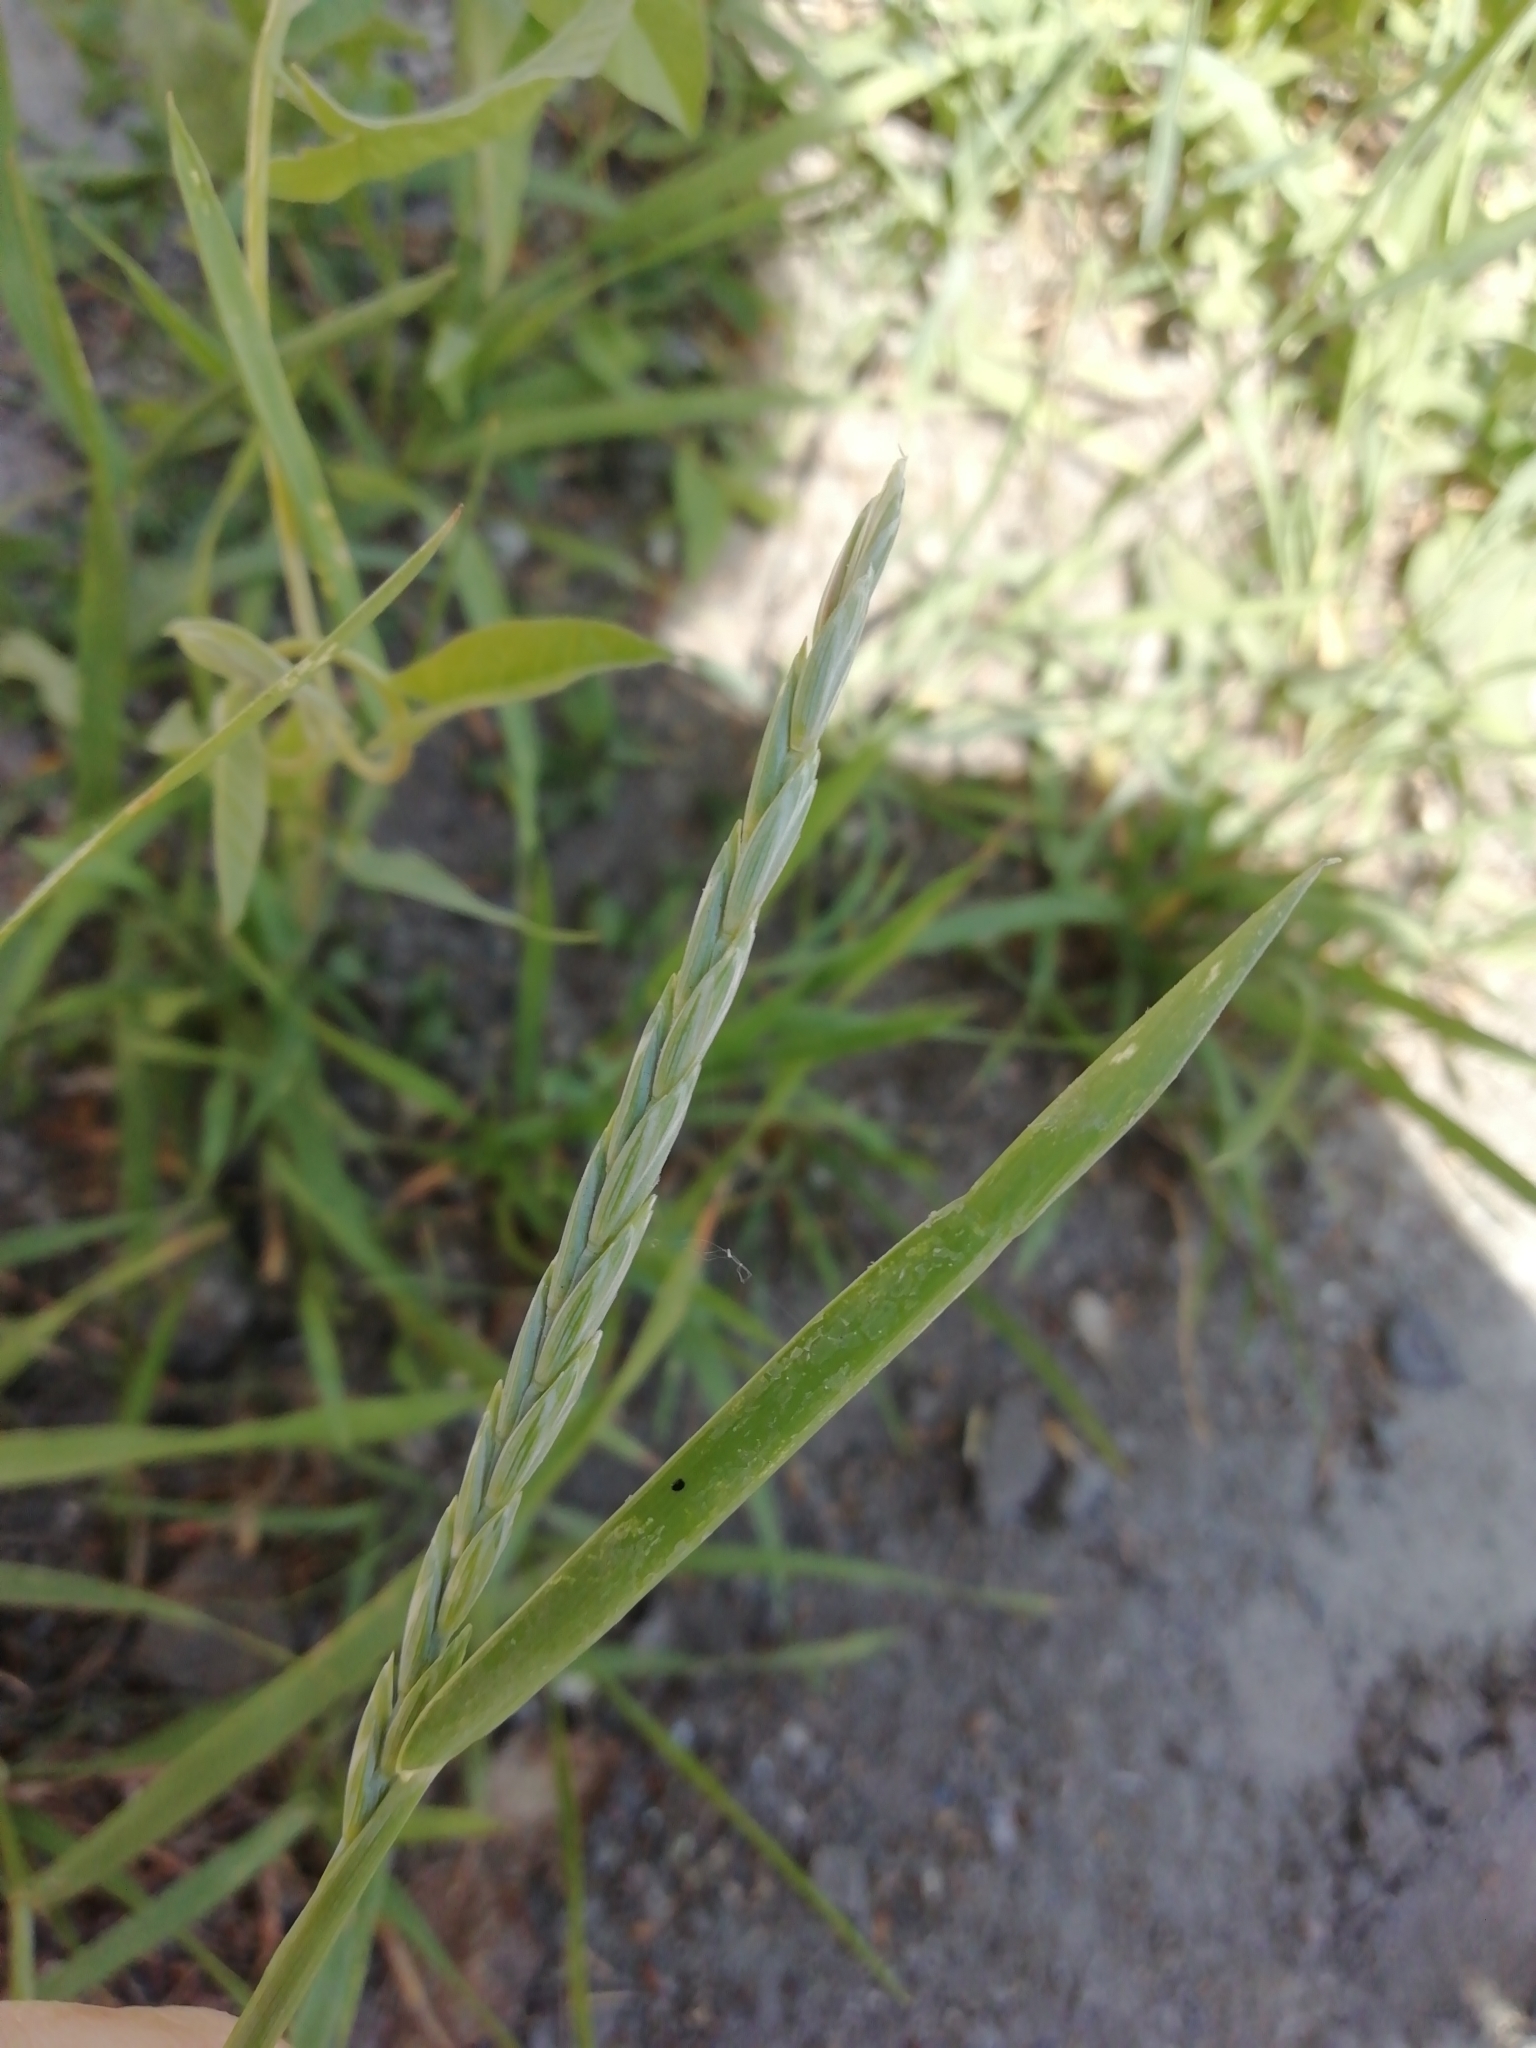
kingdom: Plantae
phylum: Tracheophyta
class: Liliopsida
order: Poales
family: Poaceae
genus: Elymus
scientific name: Elymus repens
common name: Quackgrass
